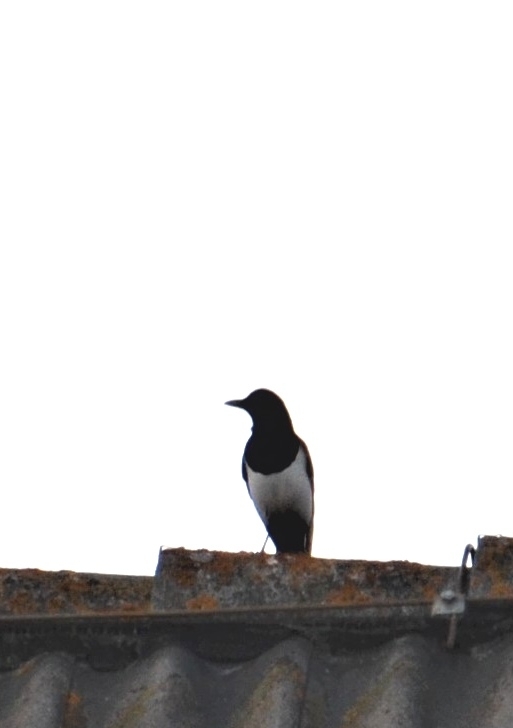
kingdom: Animalia
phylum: Chordata
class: Aves
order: Passeriformes
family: Corvidae
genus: Pica
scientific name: Pica pica
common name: Eurasian magpie
